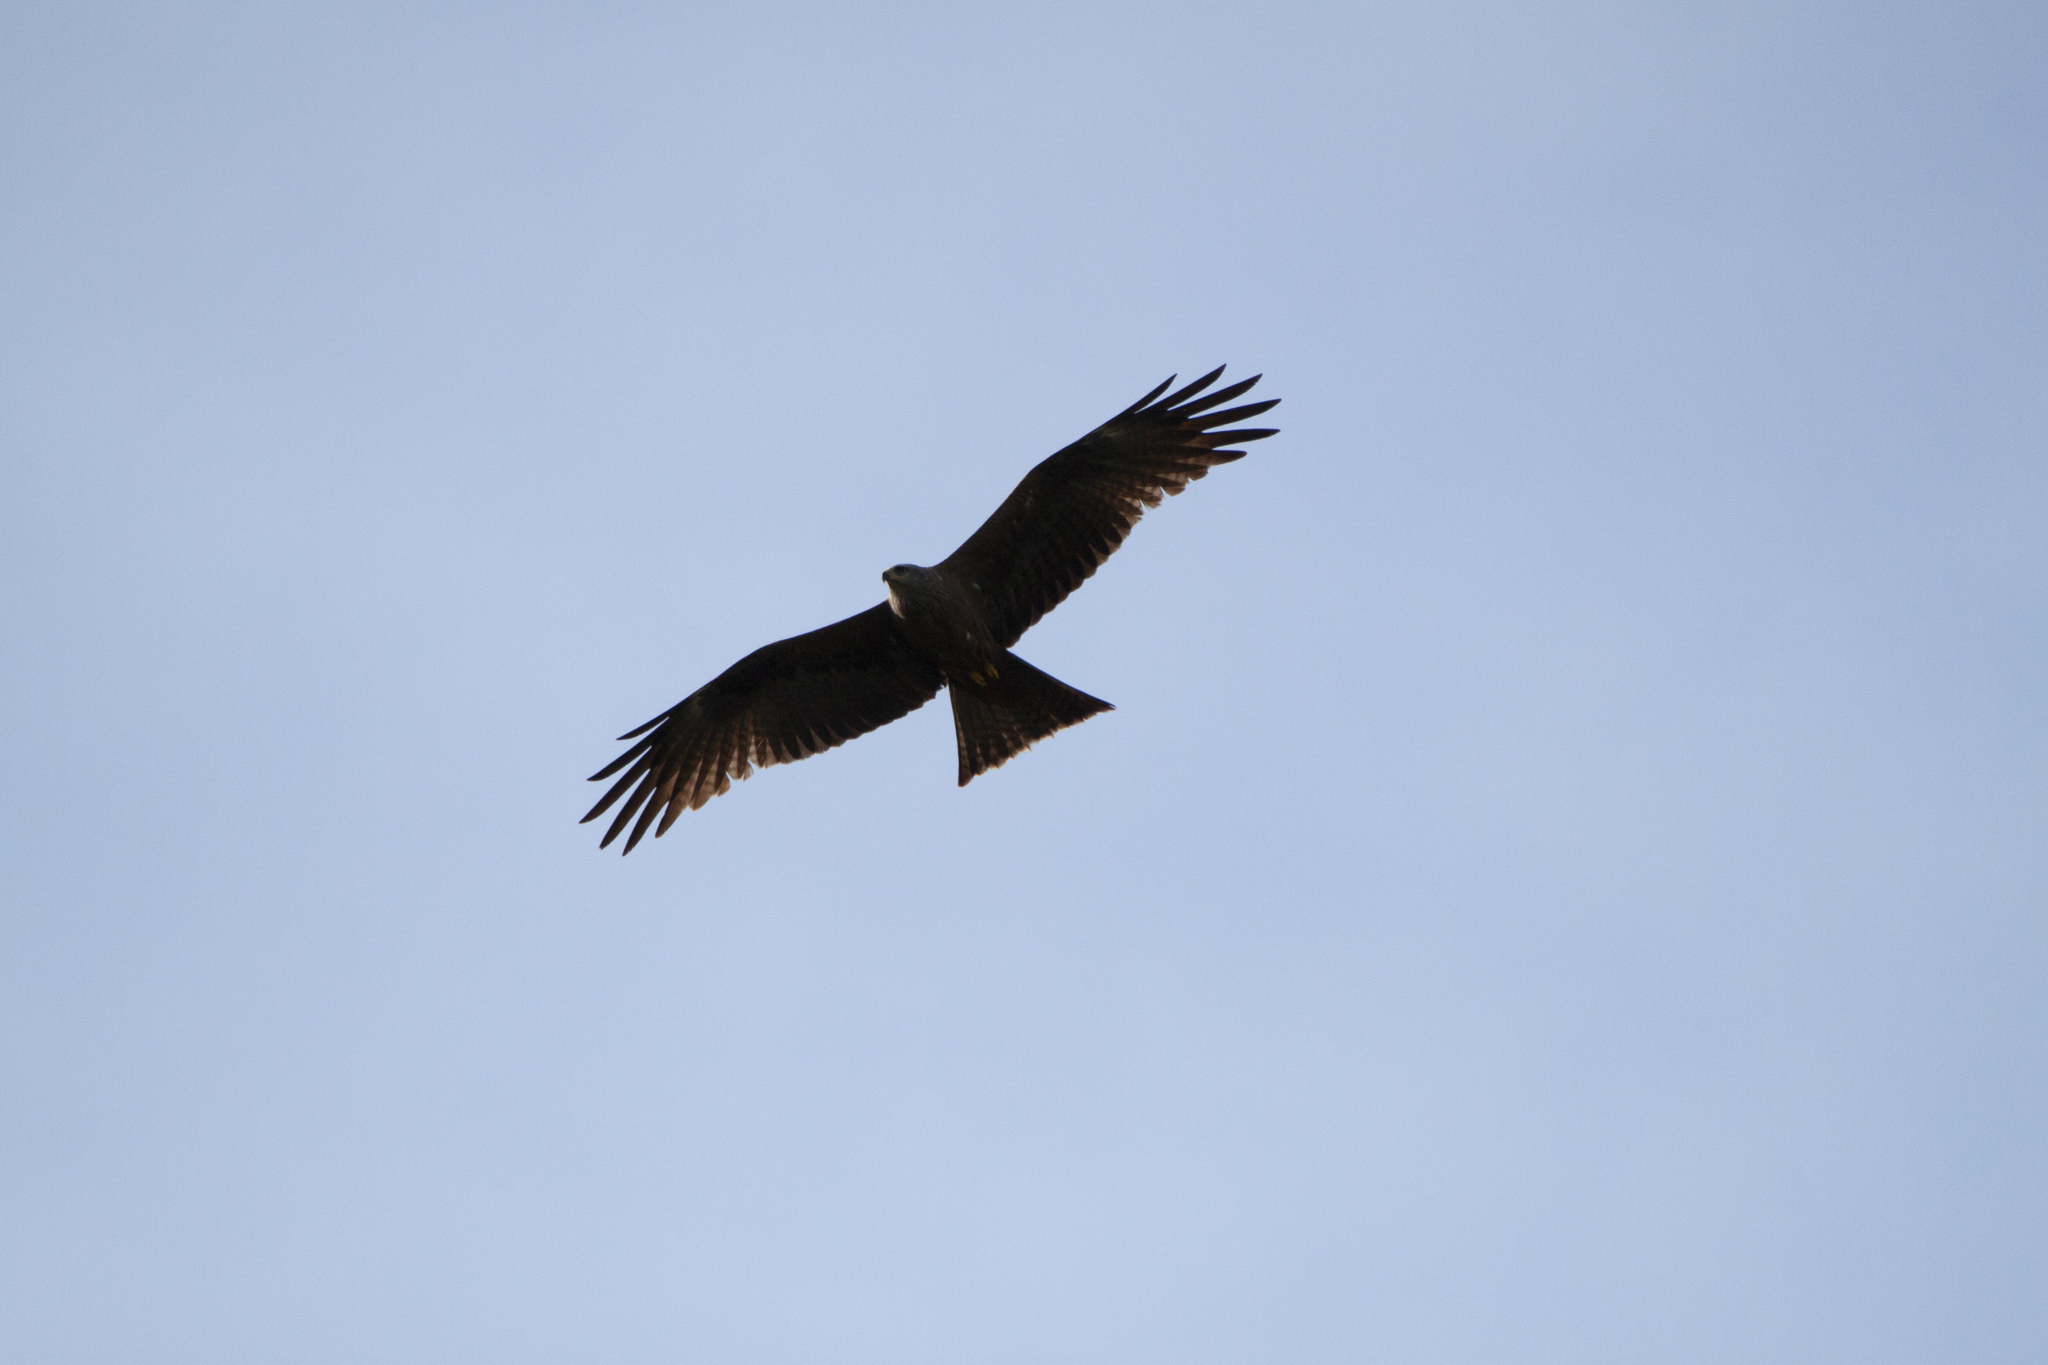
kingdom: Animalia
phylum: Chordata
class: Aves
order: Accipitriformes
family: Accipitridae
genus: Milvus
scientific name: Milvus migrans
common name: Black kite
